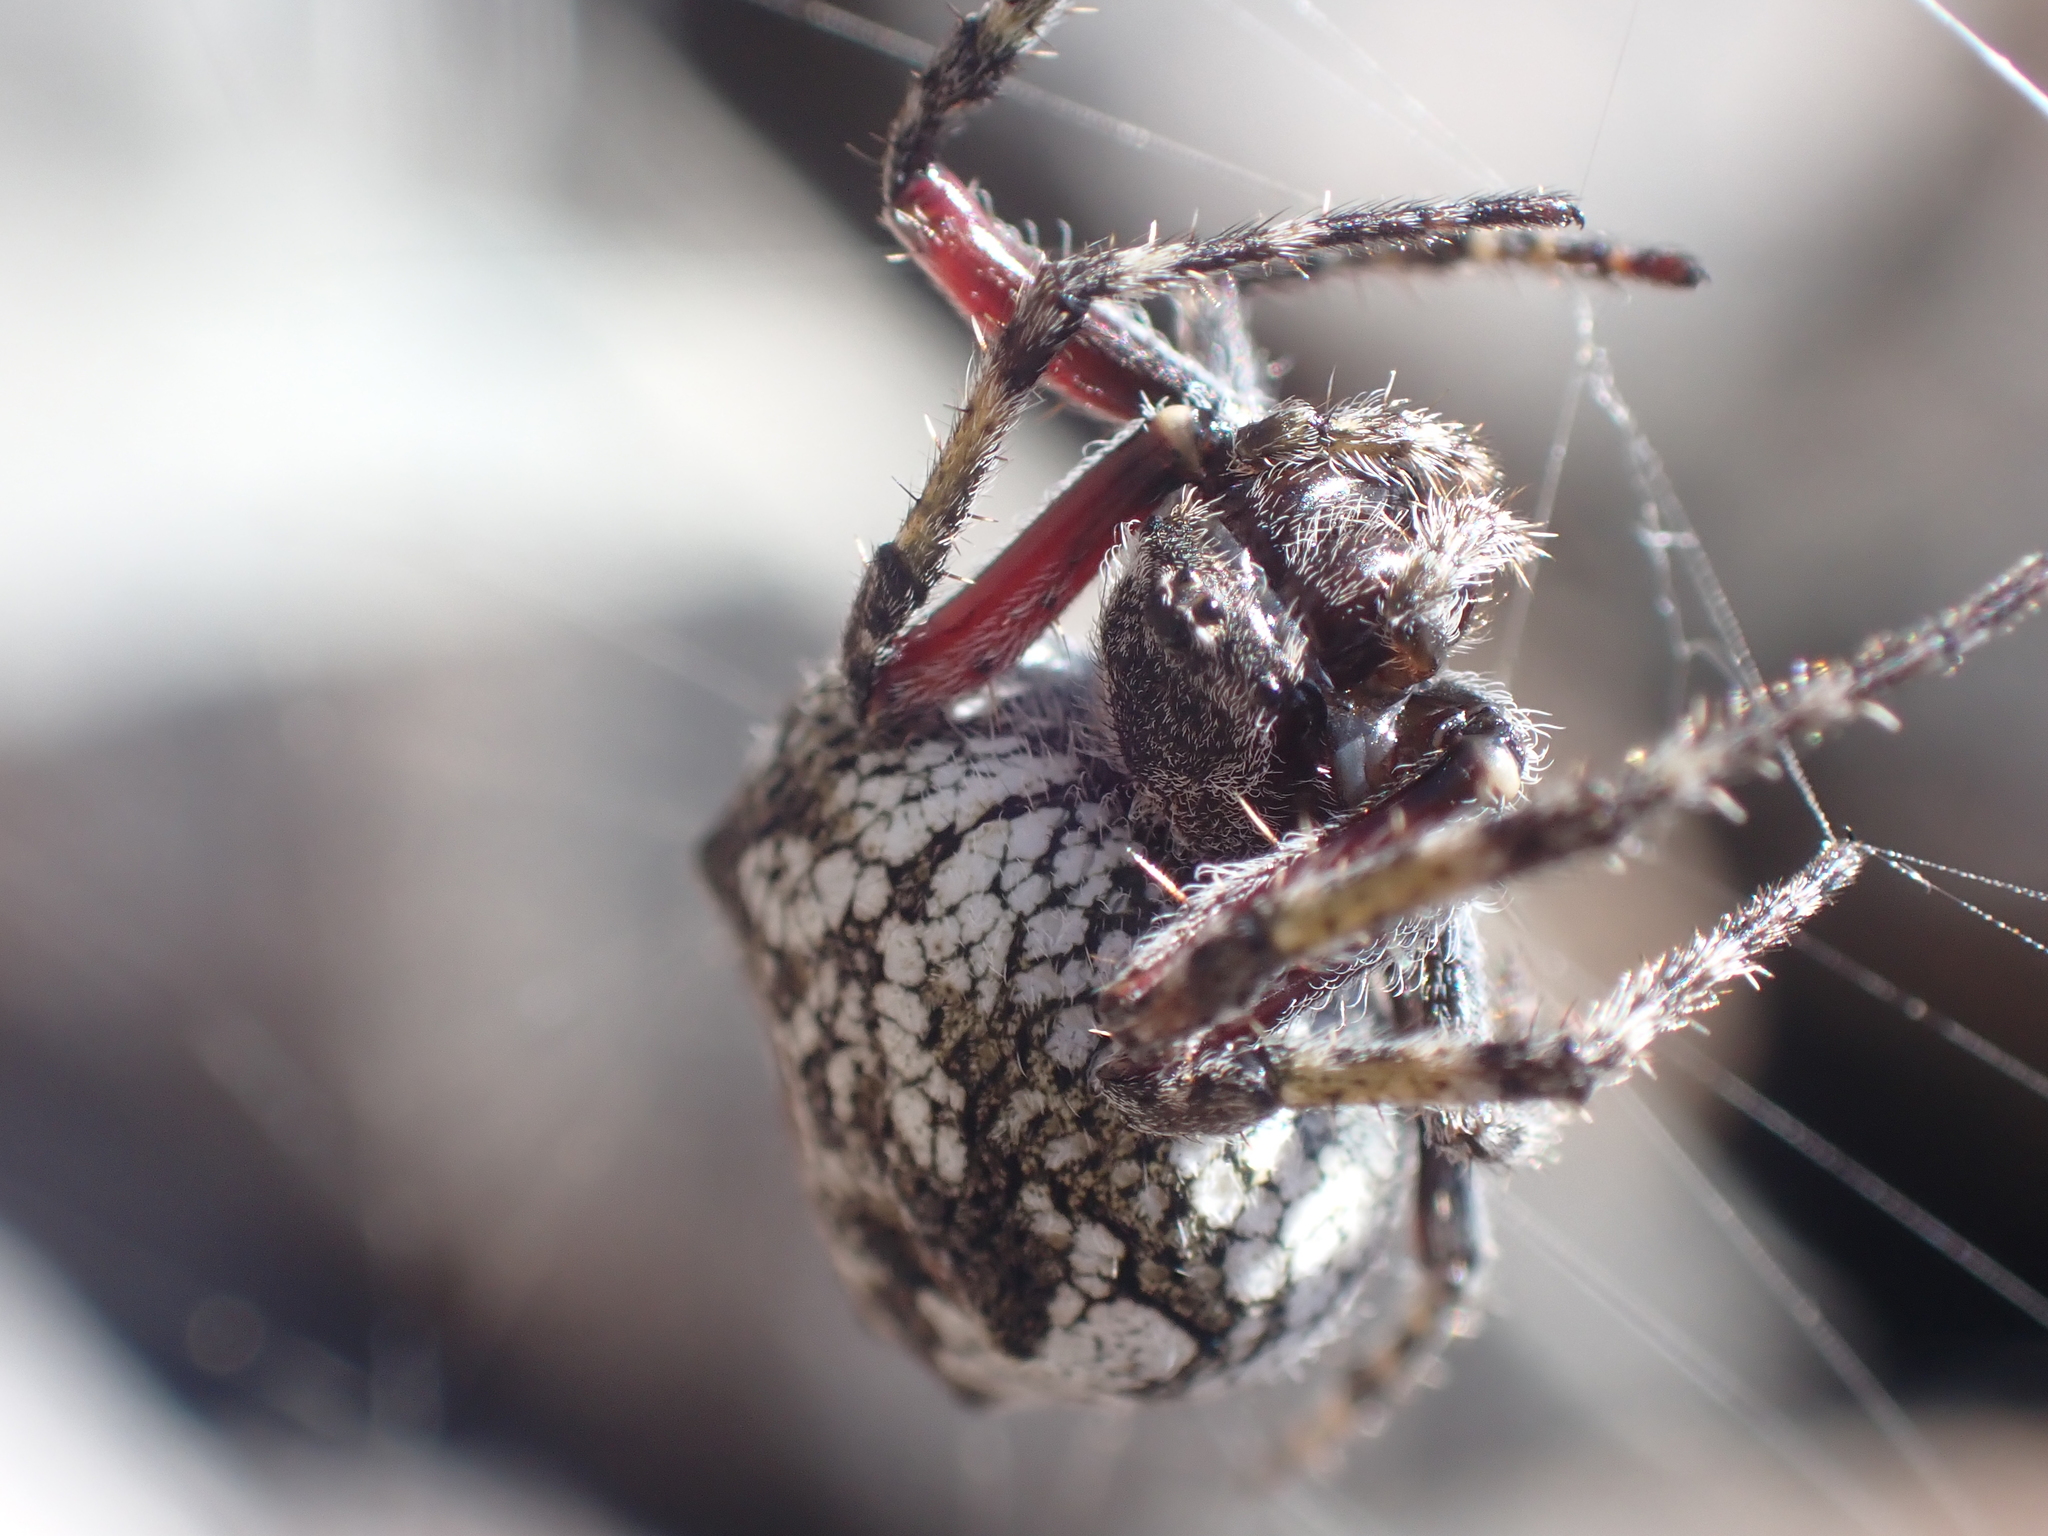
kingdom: Animalia
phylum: Arthropoda
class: Arachnida
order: Araneae
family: Araneidae
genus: Eriophora
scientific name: Eriophora pustulosa
